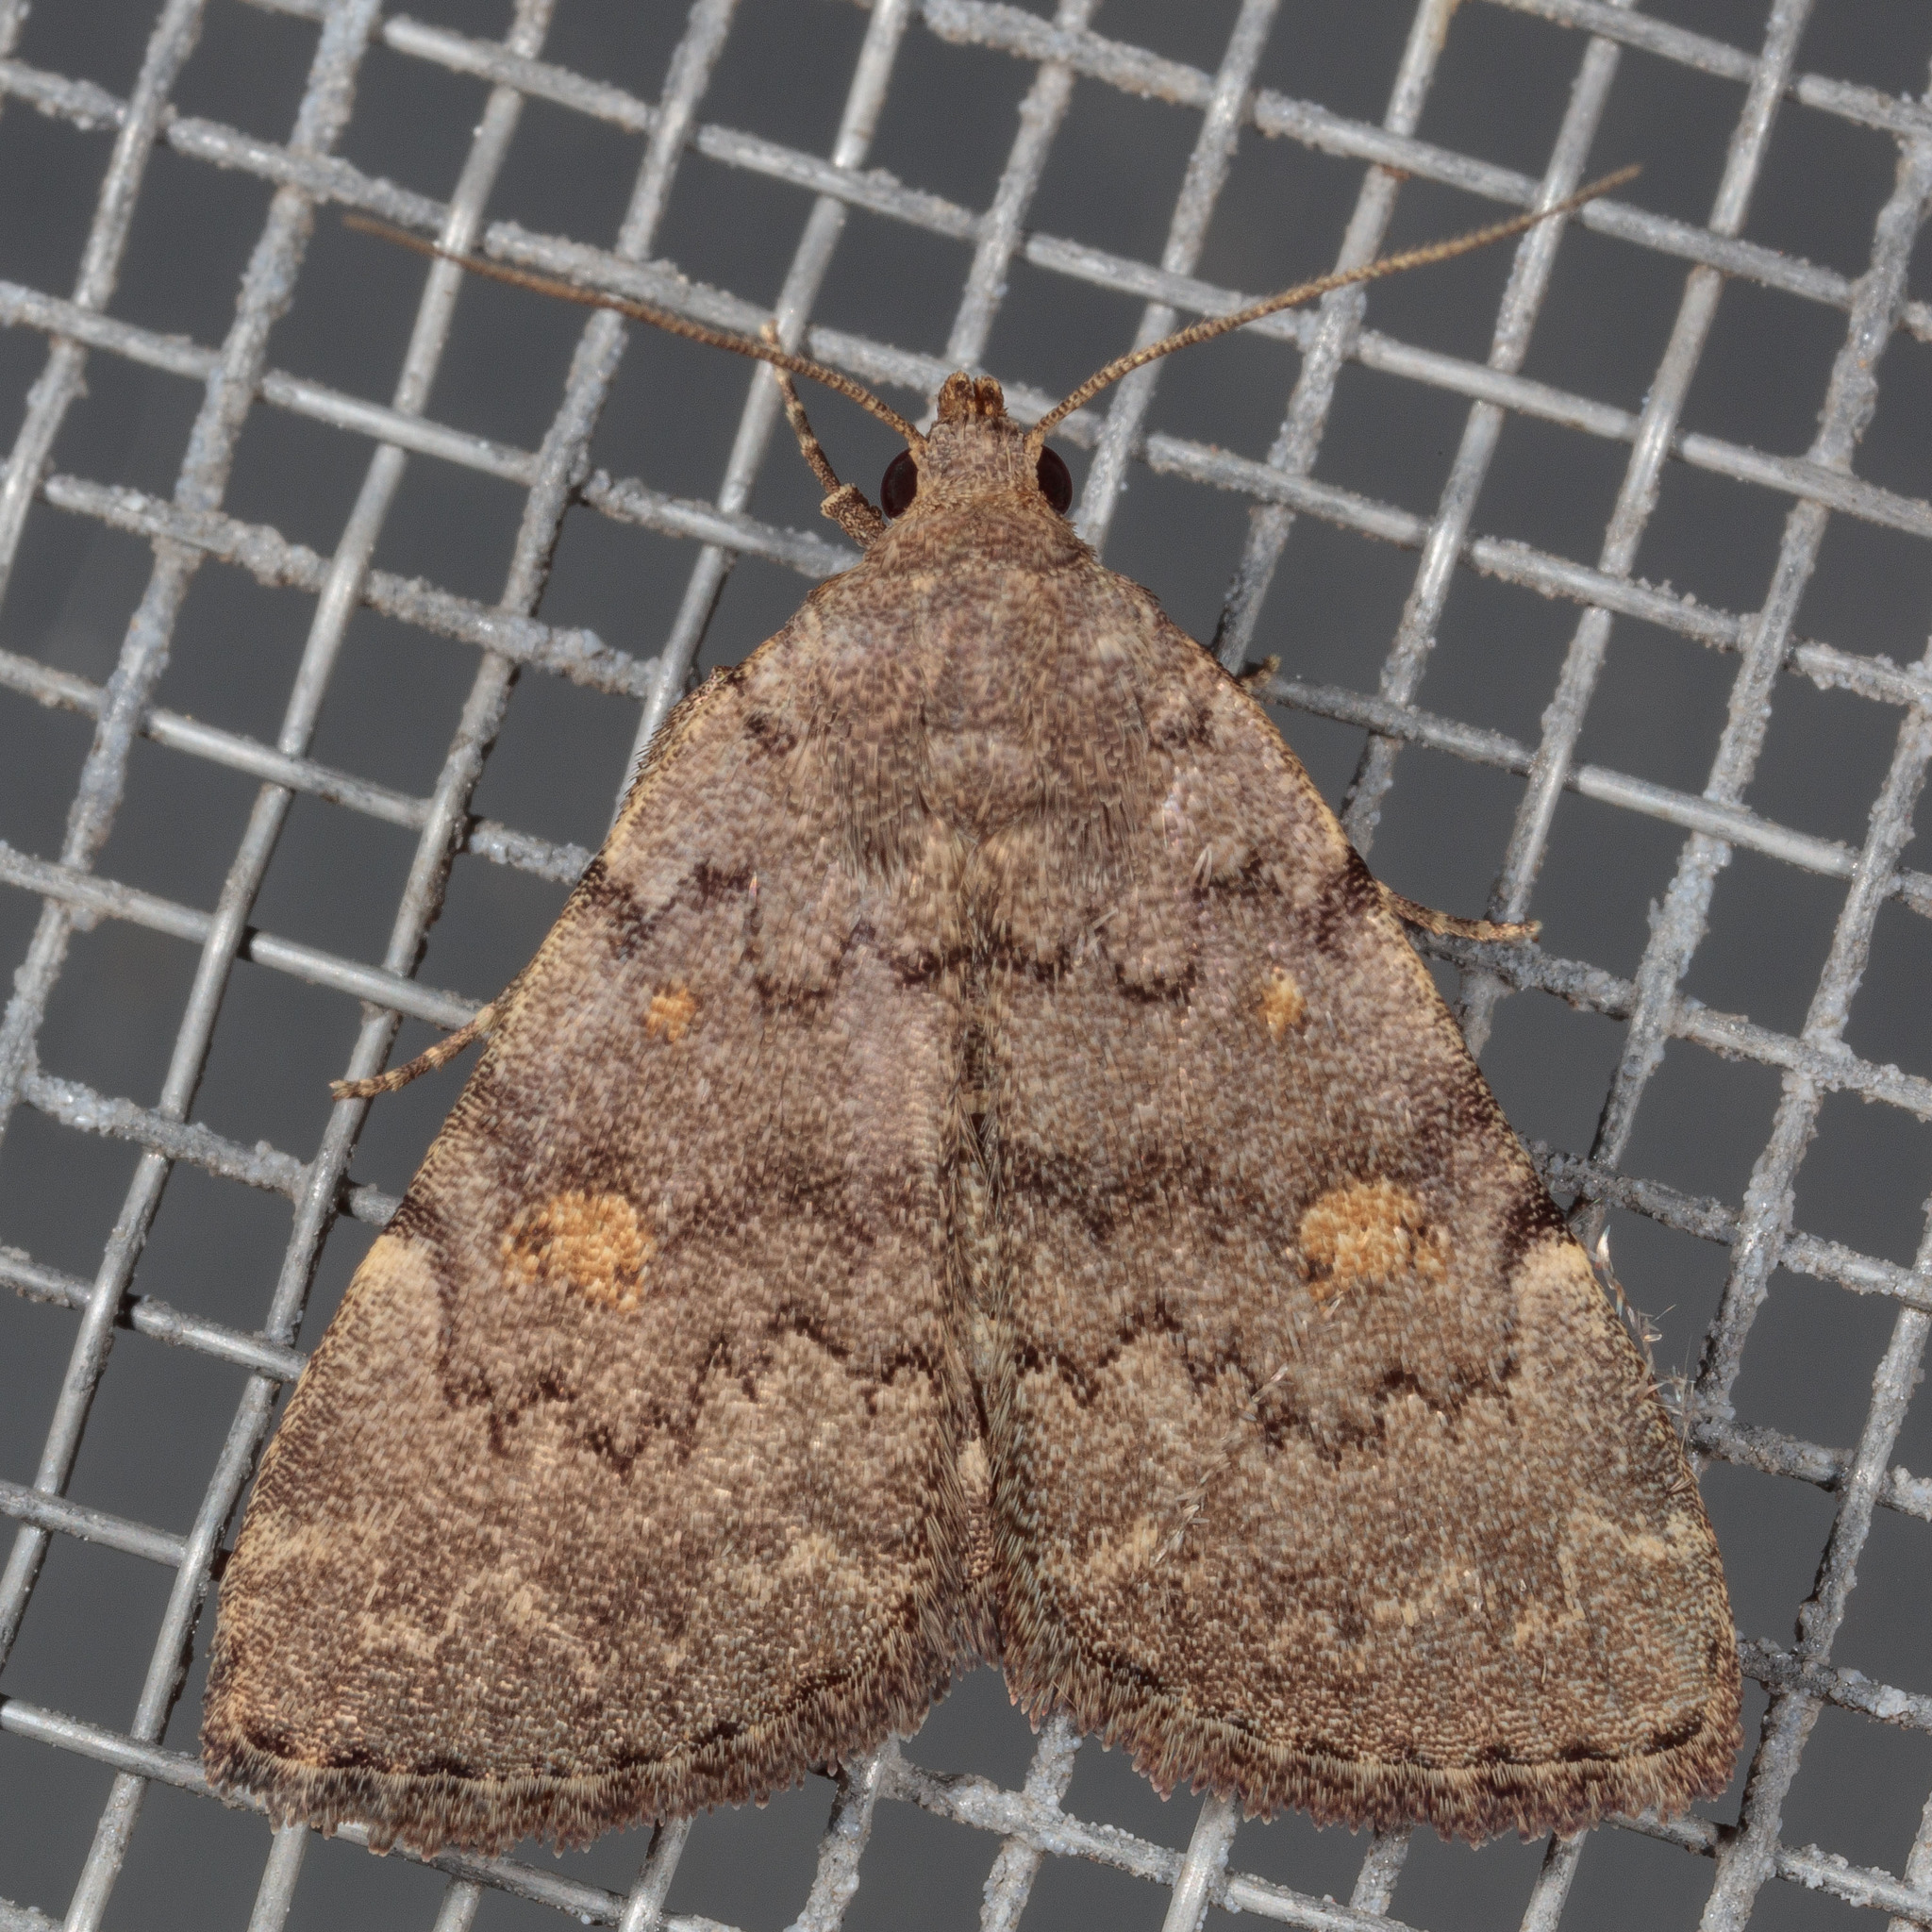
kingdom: Animalia
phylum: Arthropoda
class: Insecta
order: Lepidoptera
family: Erebidae
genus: Idia
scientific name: Idia aemula
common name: Common idia moth
